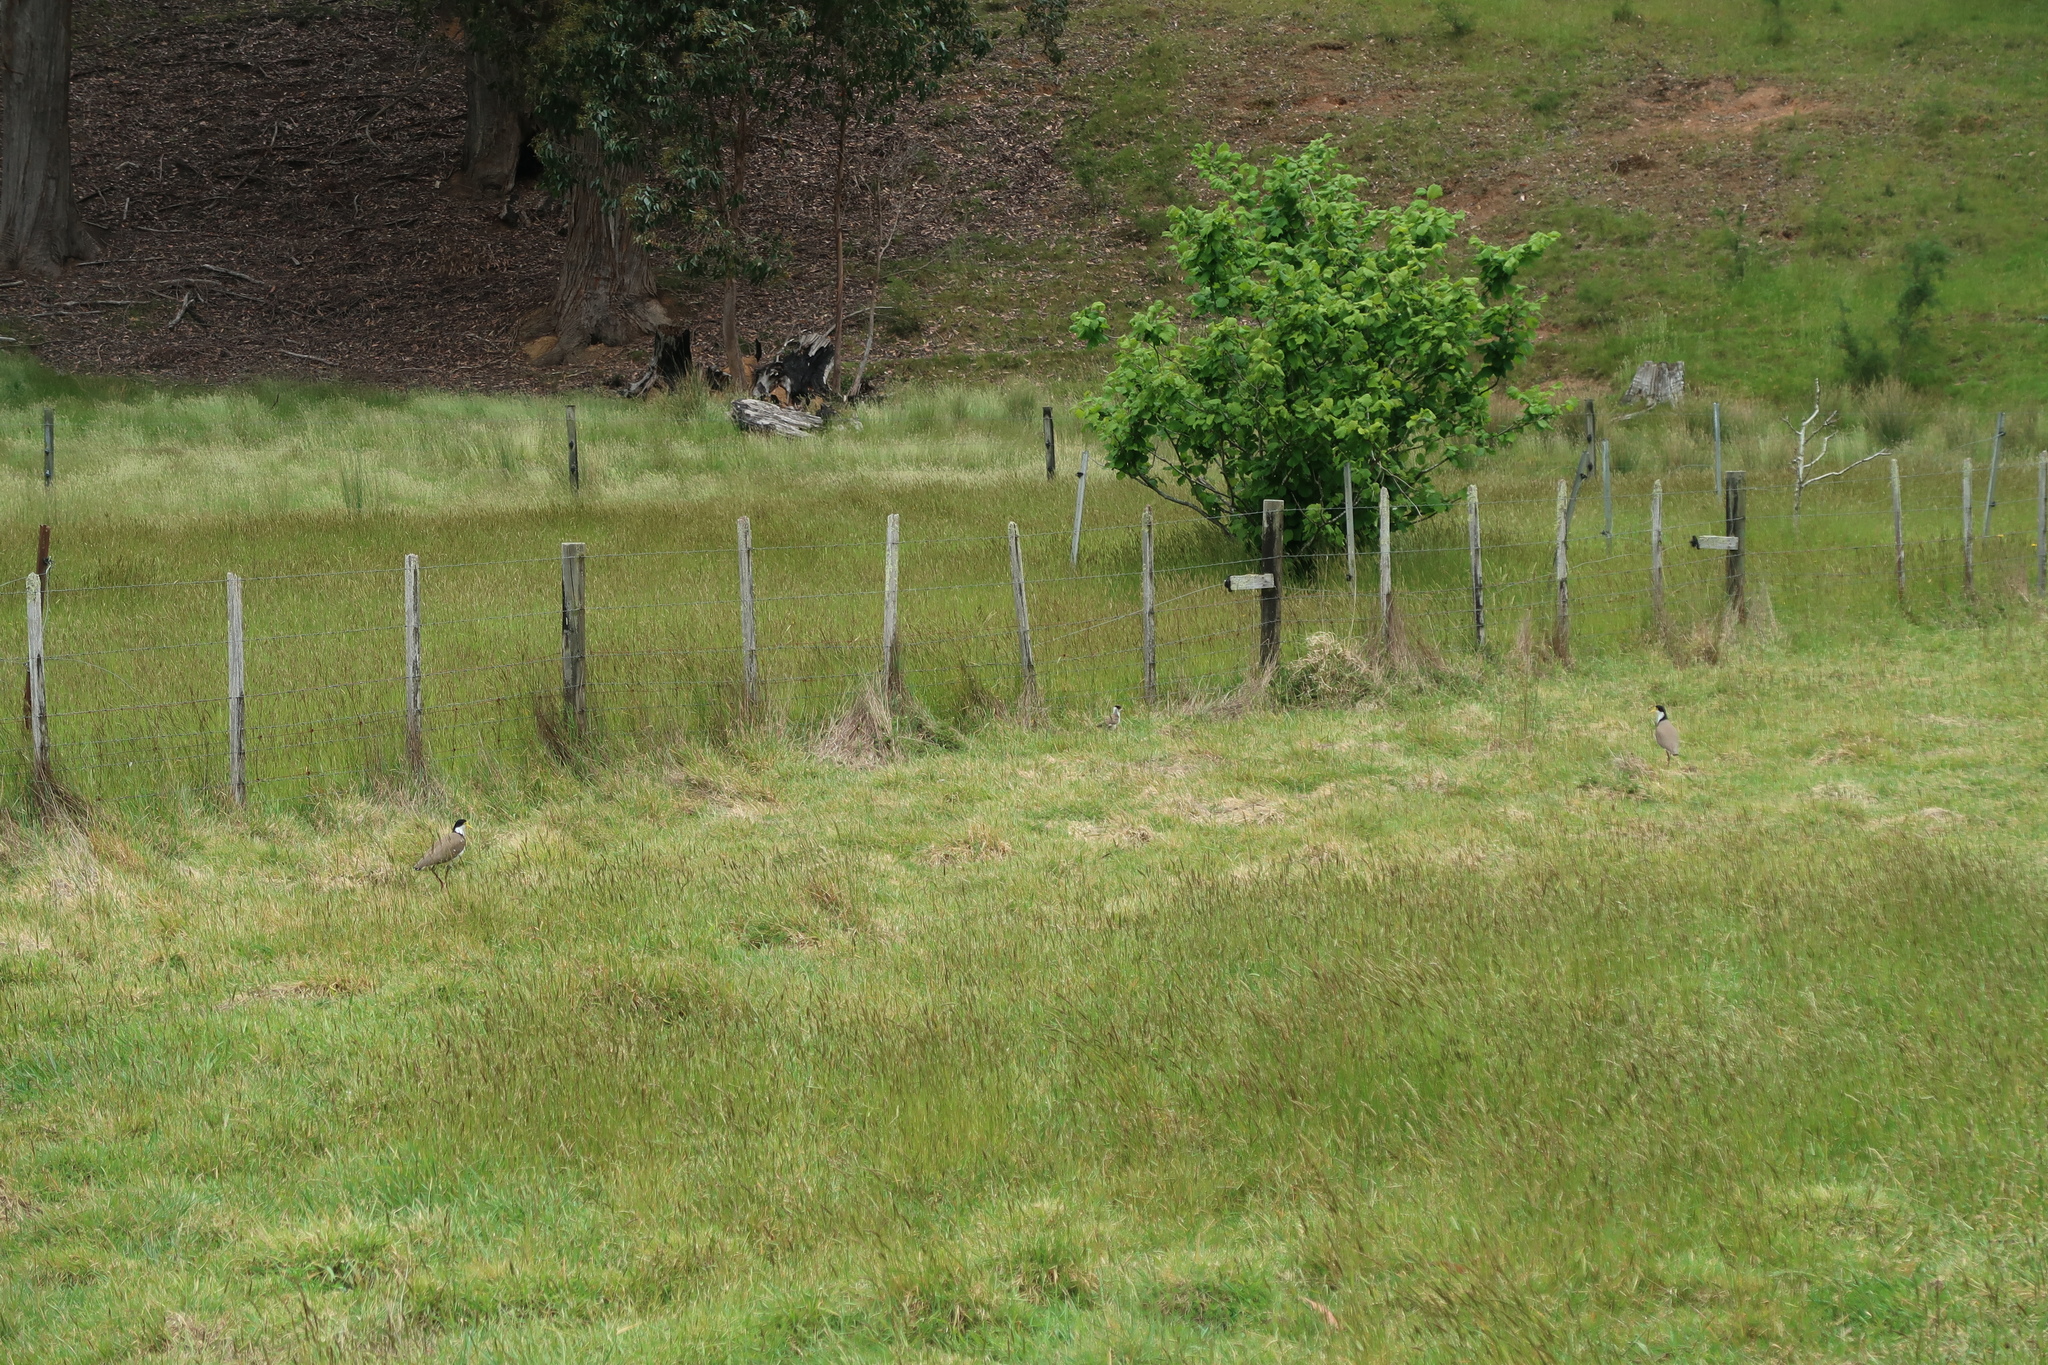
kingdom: Animalia
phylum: Chordata
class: Aves
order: Charadriiformes
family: Charadriidae
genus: Vanellus
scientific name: Vanellus miles
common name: Masked lapwing
